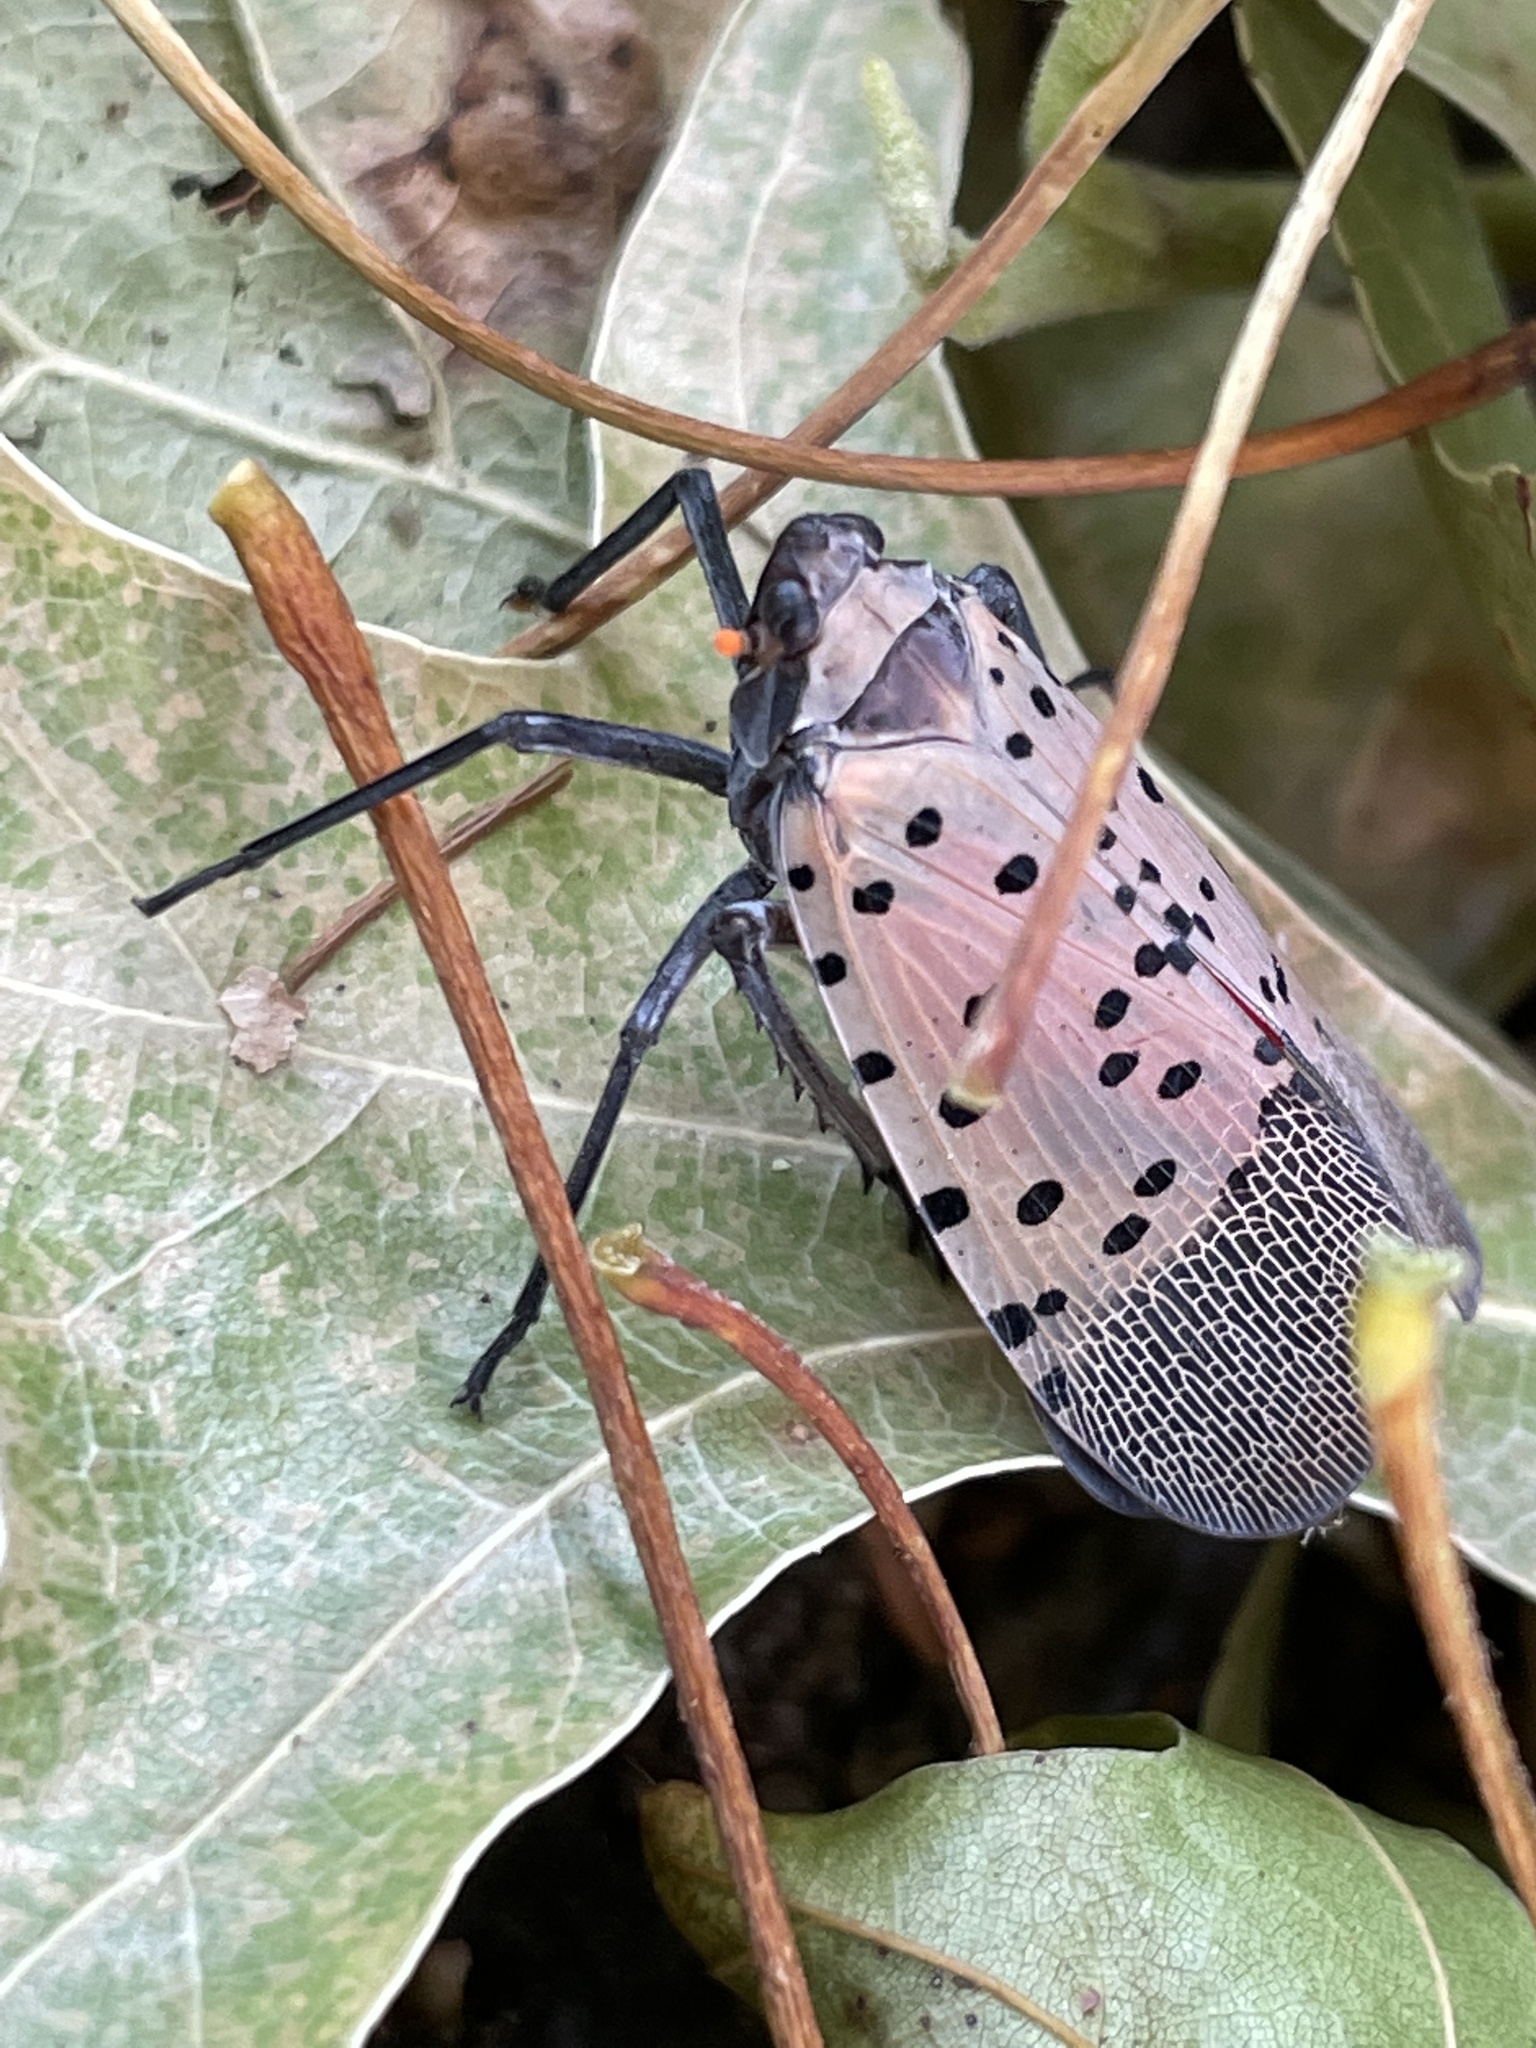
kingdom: Animalia
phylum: Arthropoda
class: Insecta
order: Hemiptera
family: Fulgoridae
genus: Lycorma
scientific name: Lycorma delicatula
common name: Spotted lanternfly
